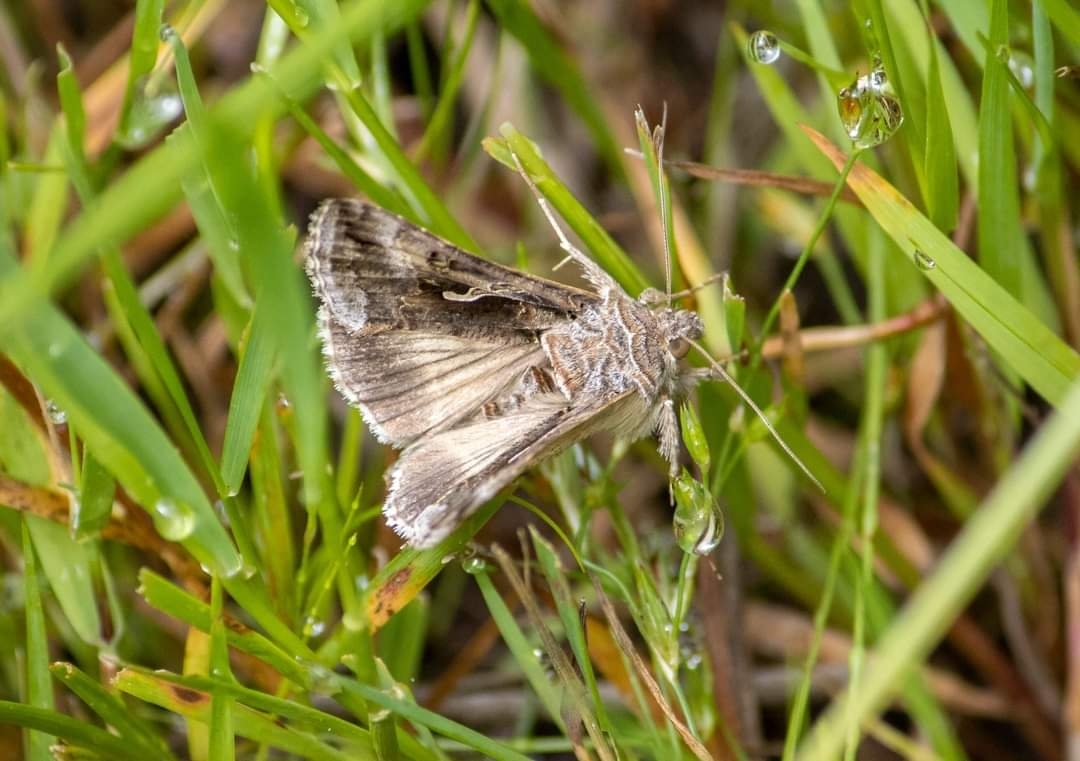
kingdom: Animalia
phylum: Arthropoda
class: Insecta
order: Lepidoptera
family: Noctuidae
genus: Autographa
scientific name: Autographa gamma
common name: Silver y
